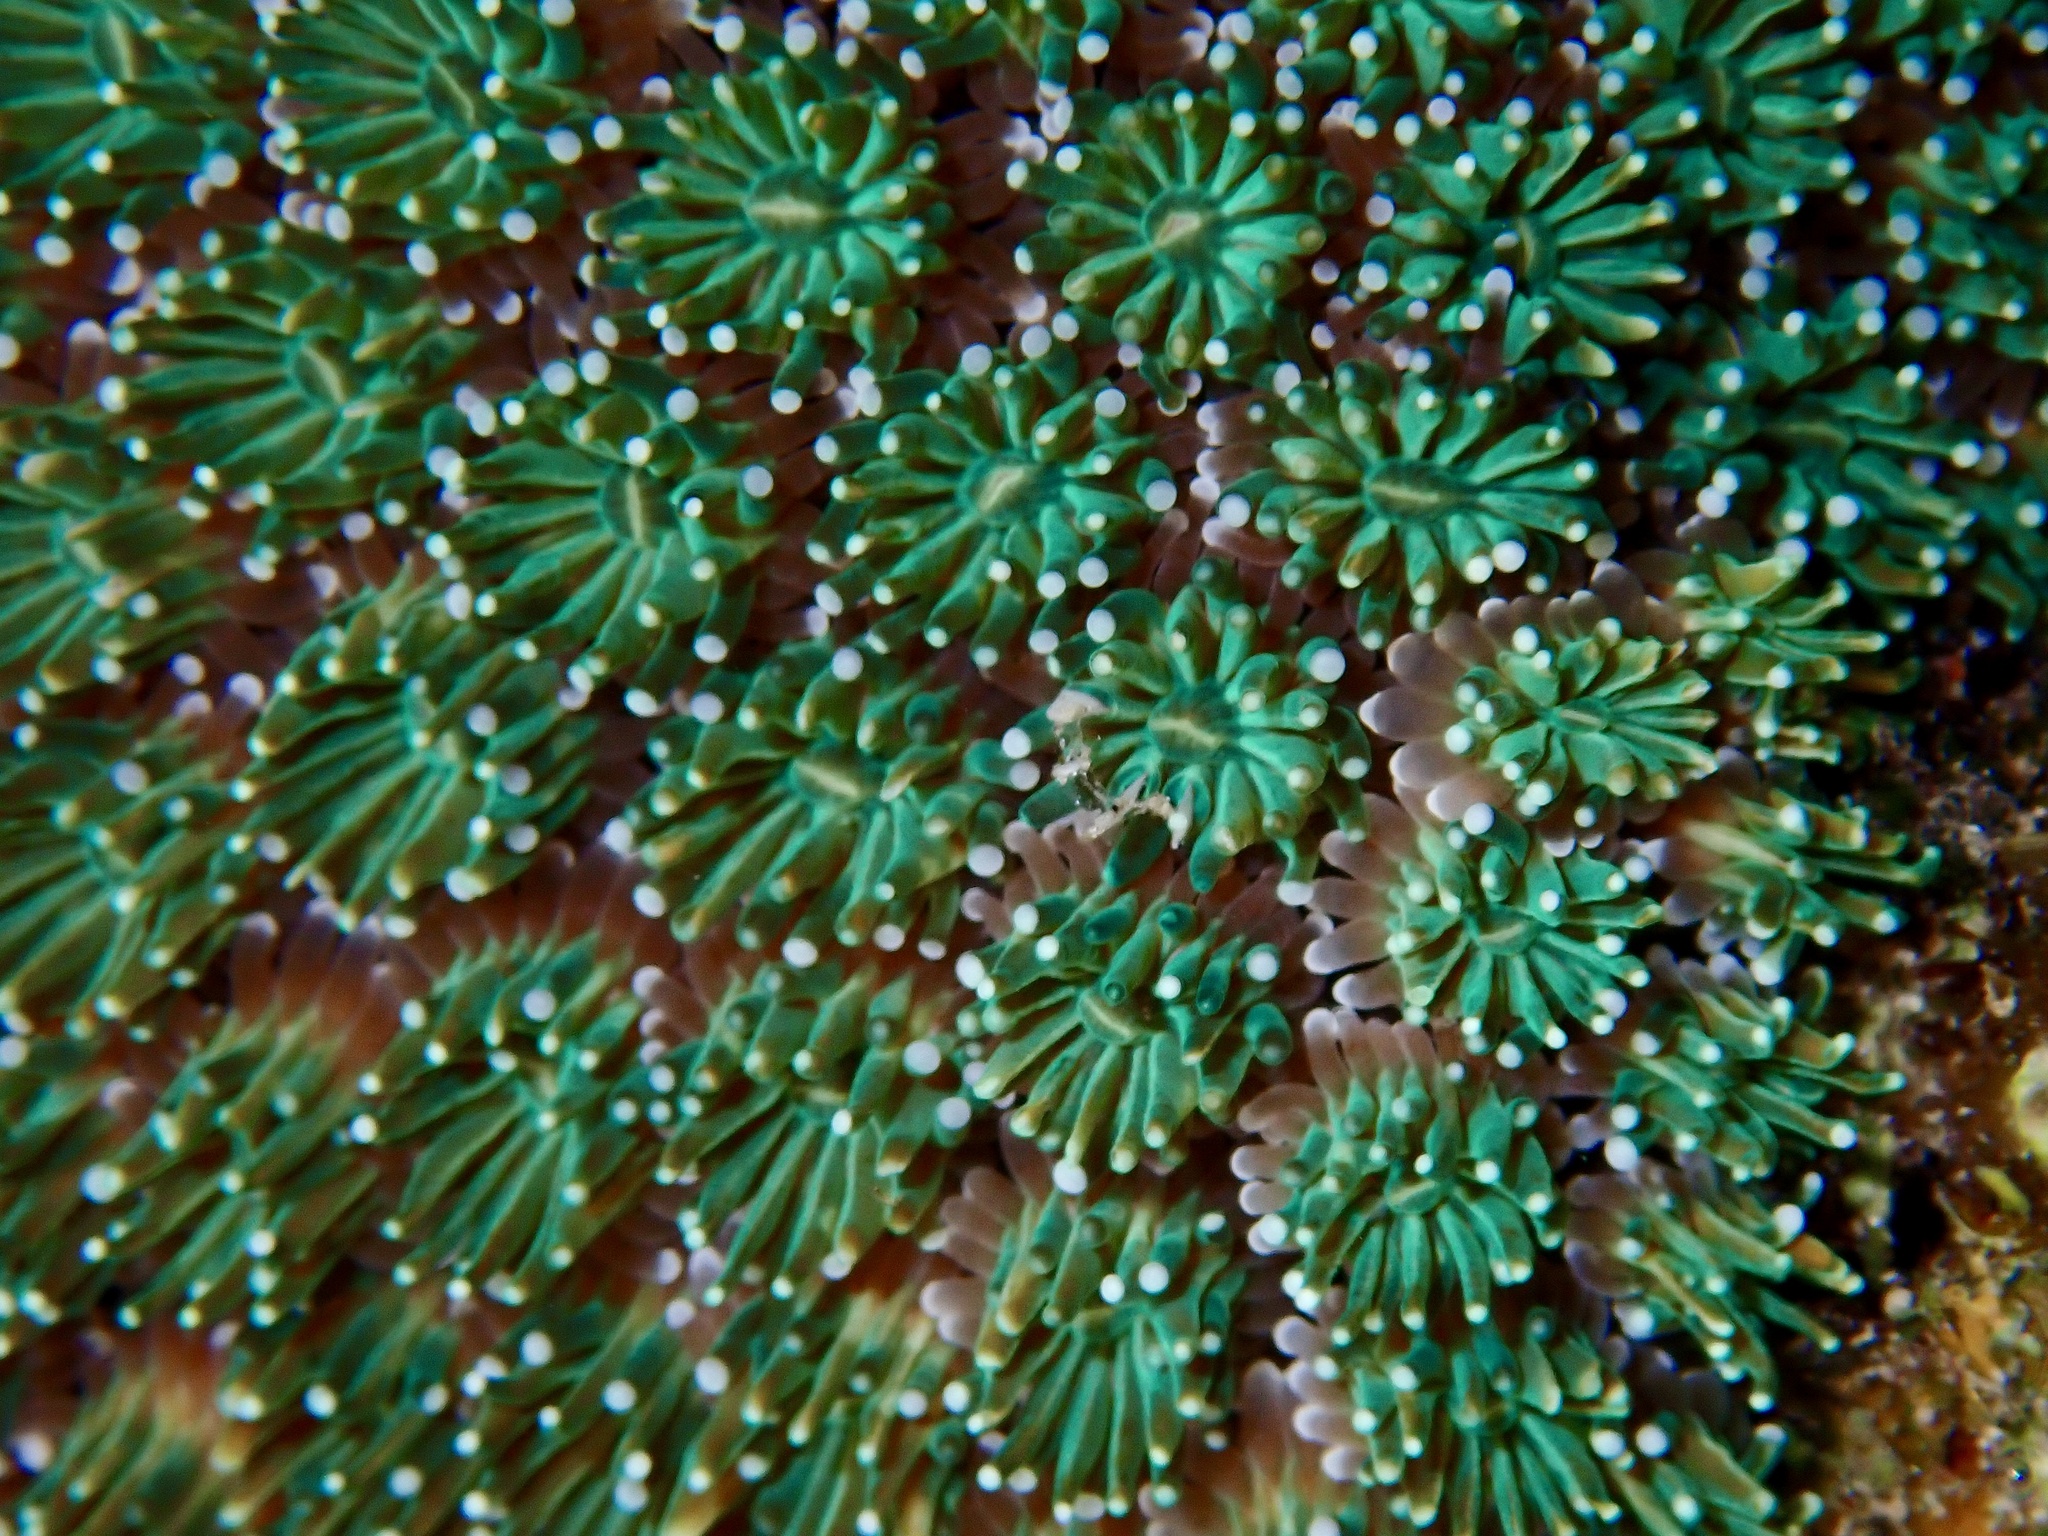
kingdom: Animalia
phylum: Cnidaria
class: Anthozoa
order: Scleractinia
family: Euphylliidae
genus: Galaxea
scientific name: Galaxea fascicularis
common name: Octopus coral
